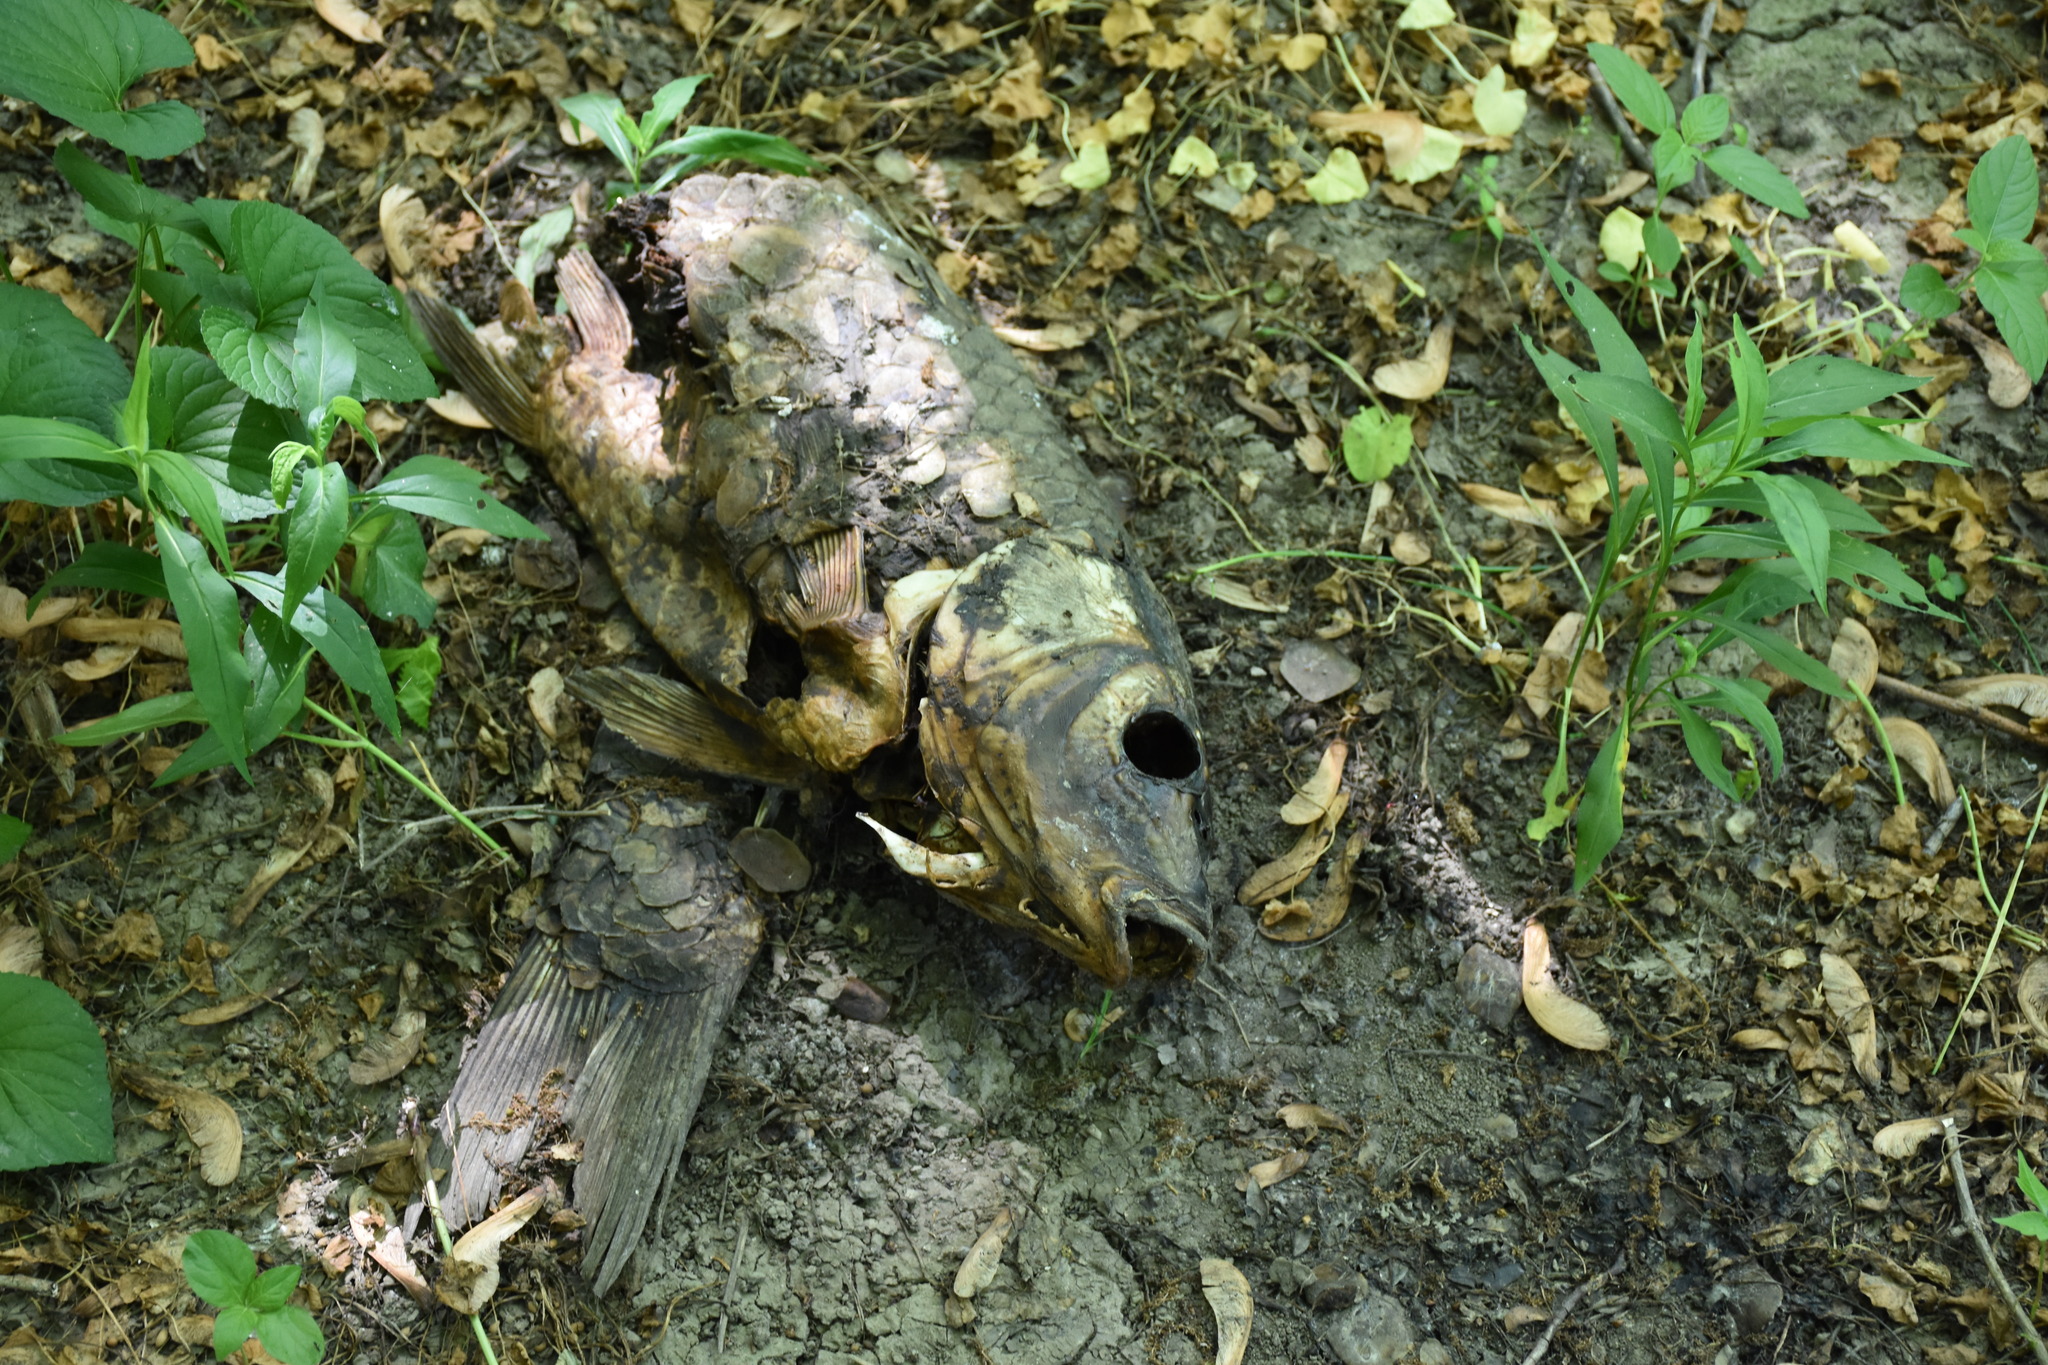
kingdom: Animalia
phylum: Chordata
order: Cypriniformes
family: Cyprinidae
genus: Cyprinus
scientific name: Cyprinus carpio
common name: Common carp
